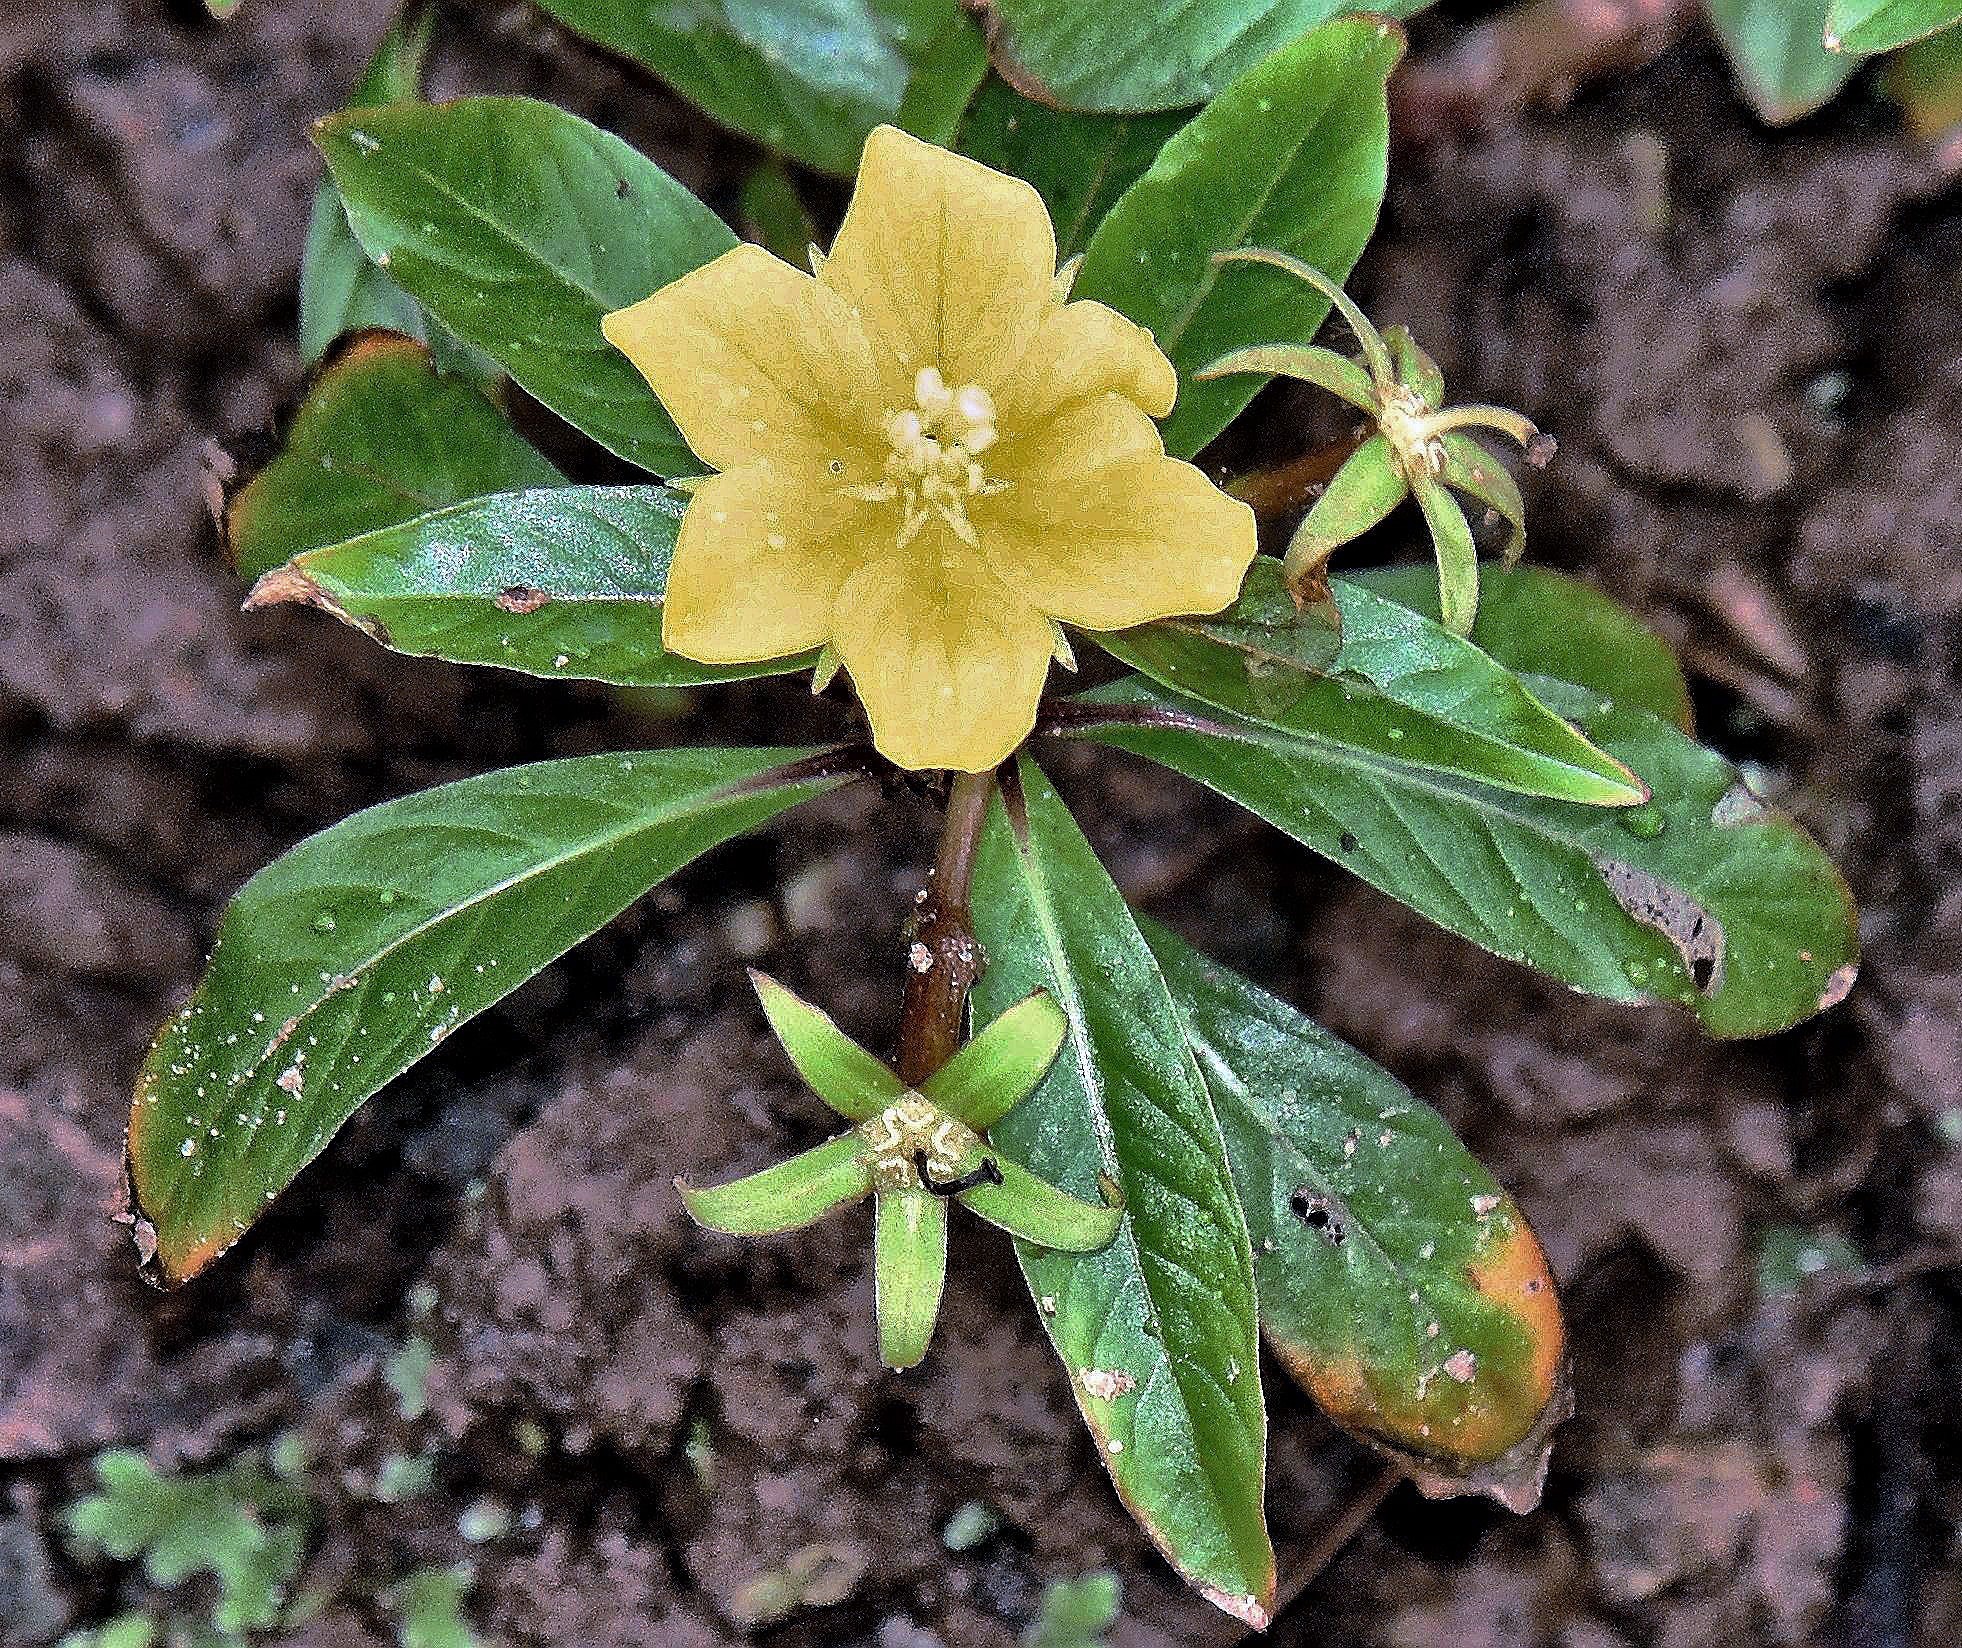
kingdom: Plantae
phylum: Tracheophyta
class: Magnoliopsida
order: Myrtales
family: Onagraceae
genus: Ludwigia
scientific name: Ludwigia grandiflora
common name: Water primrose
